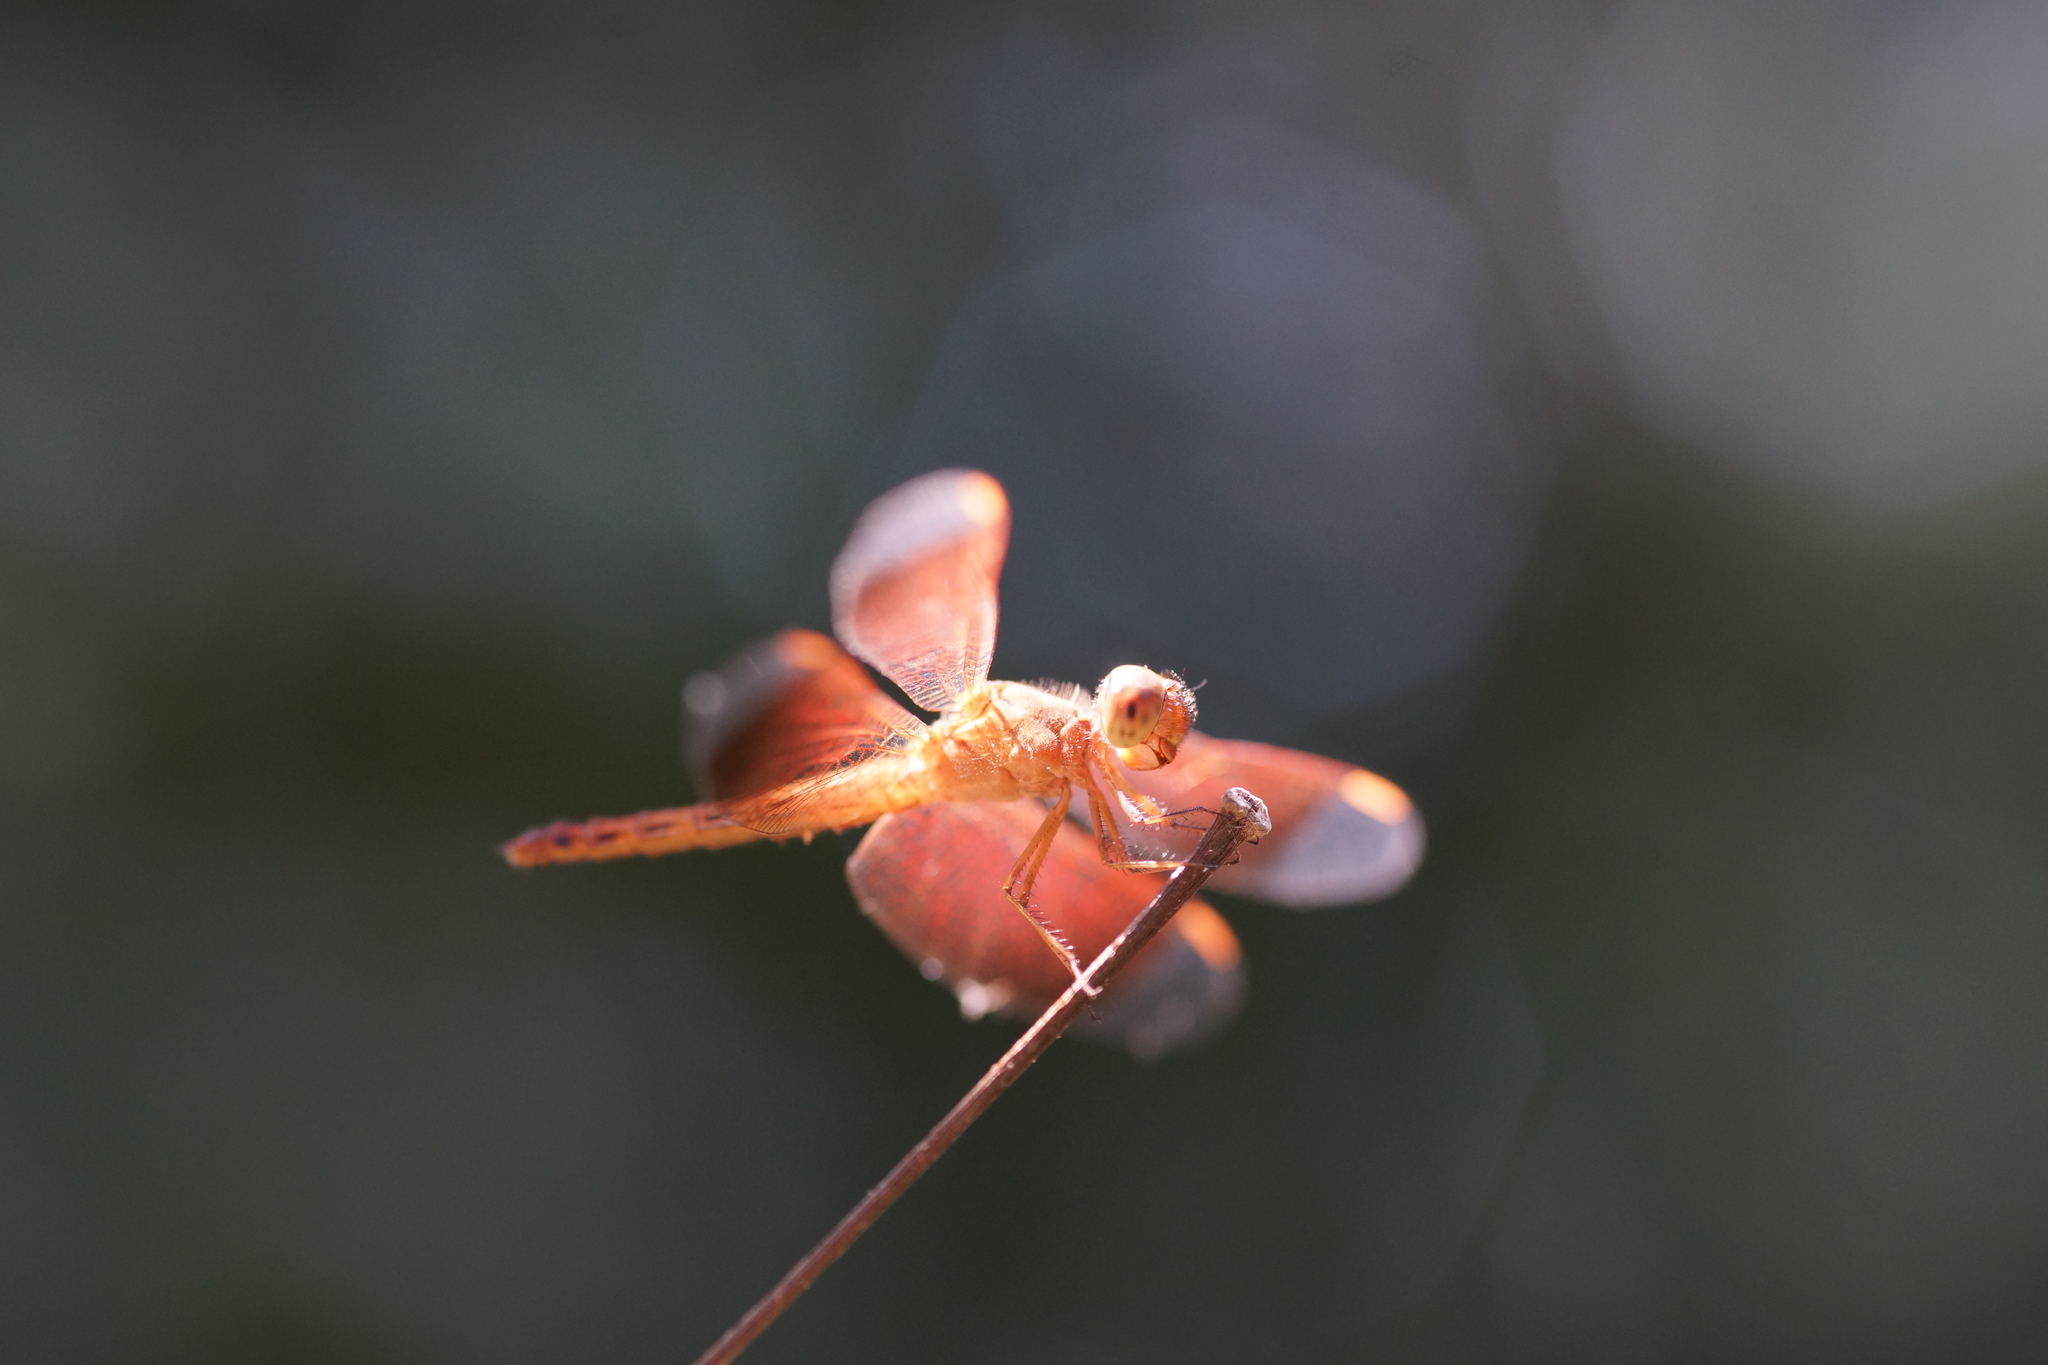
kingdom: Animalia
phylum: Arthropoda
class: Insecta
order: Odonata
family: Libellulidae
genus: Neurothemis
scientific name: Neurothemis fluctuans
